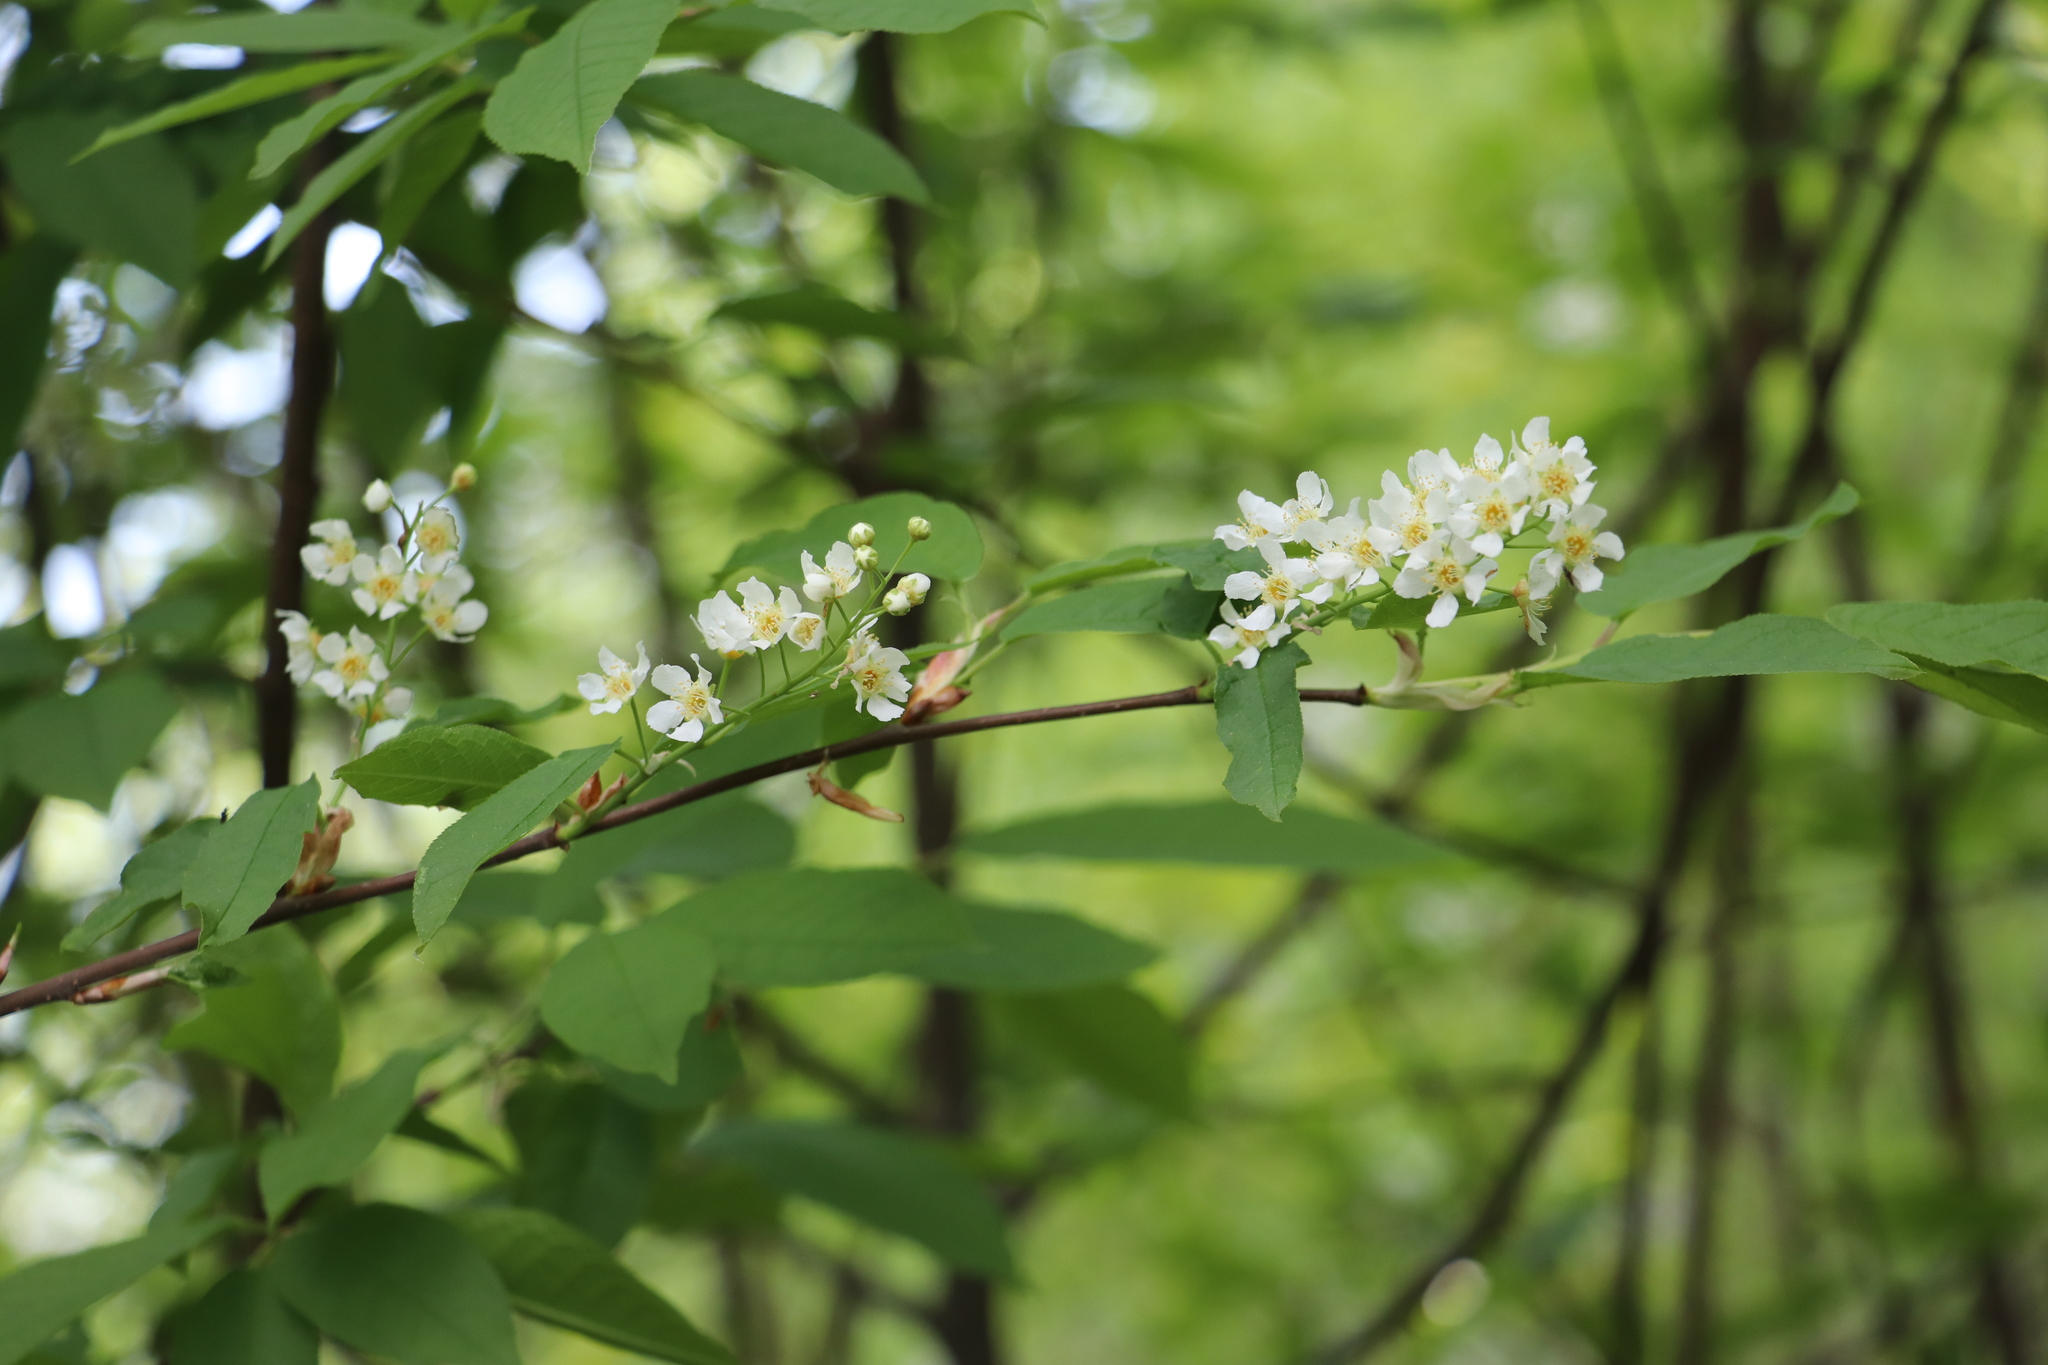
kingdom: Plantae
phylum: Tracheophyta
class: Magnoliopsida
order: Rosales
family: Rosaceae
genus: Prunus
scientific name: Prunus padus
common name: Bird cherry
